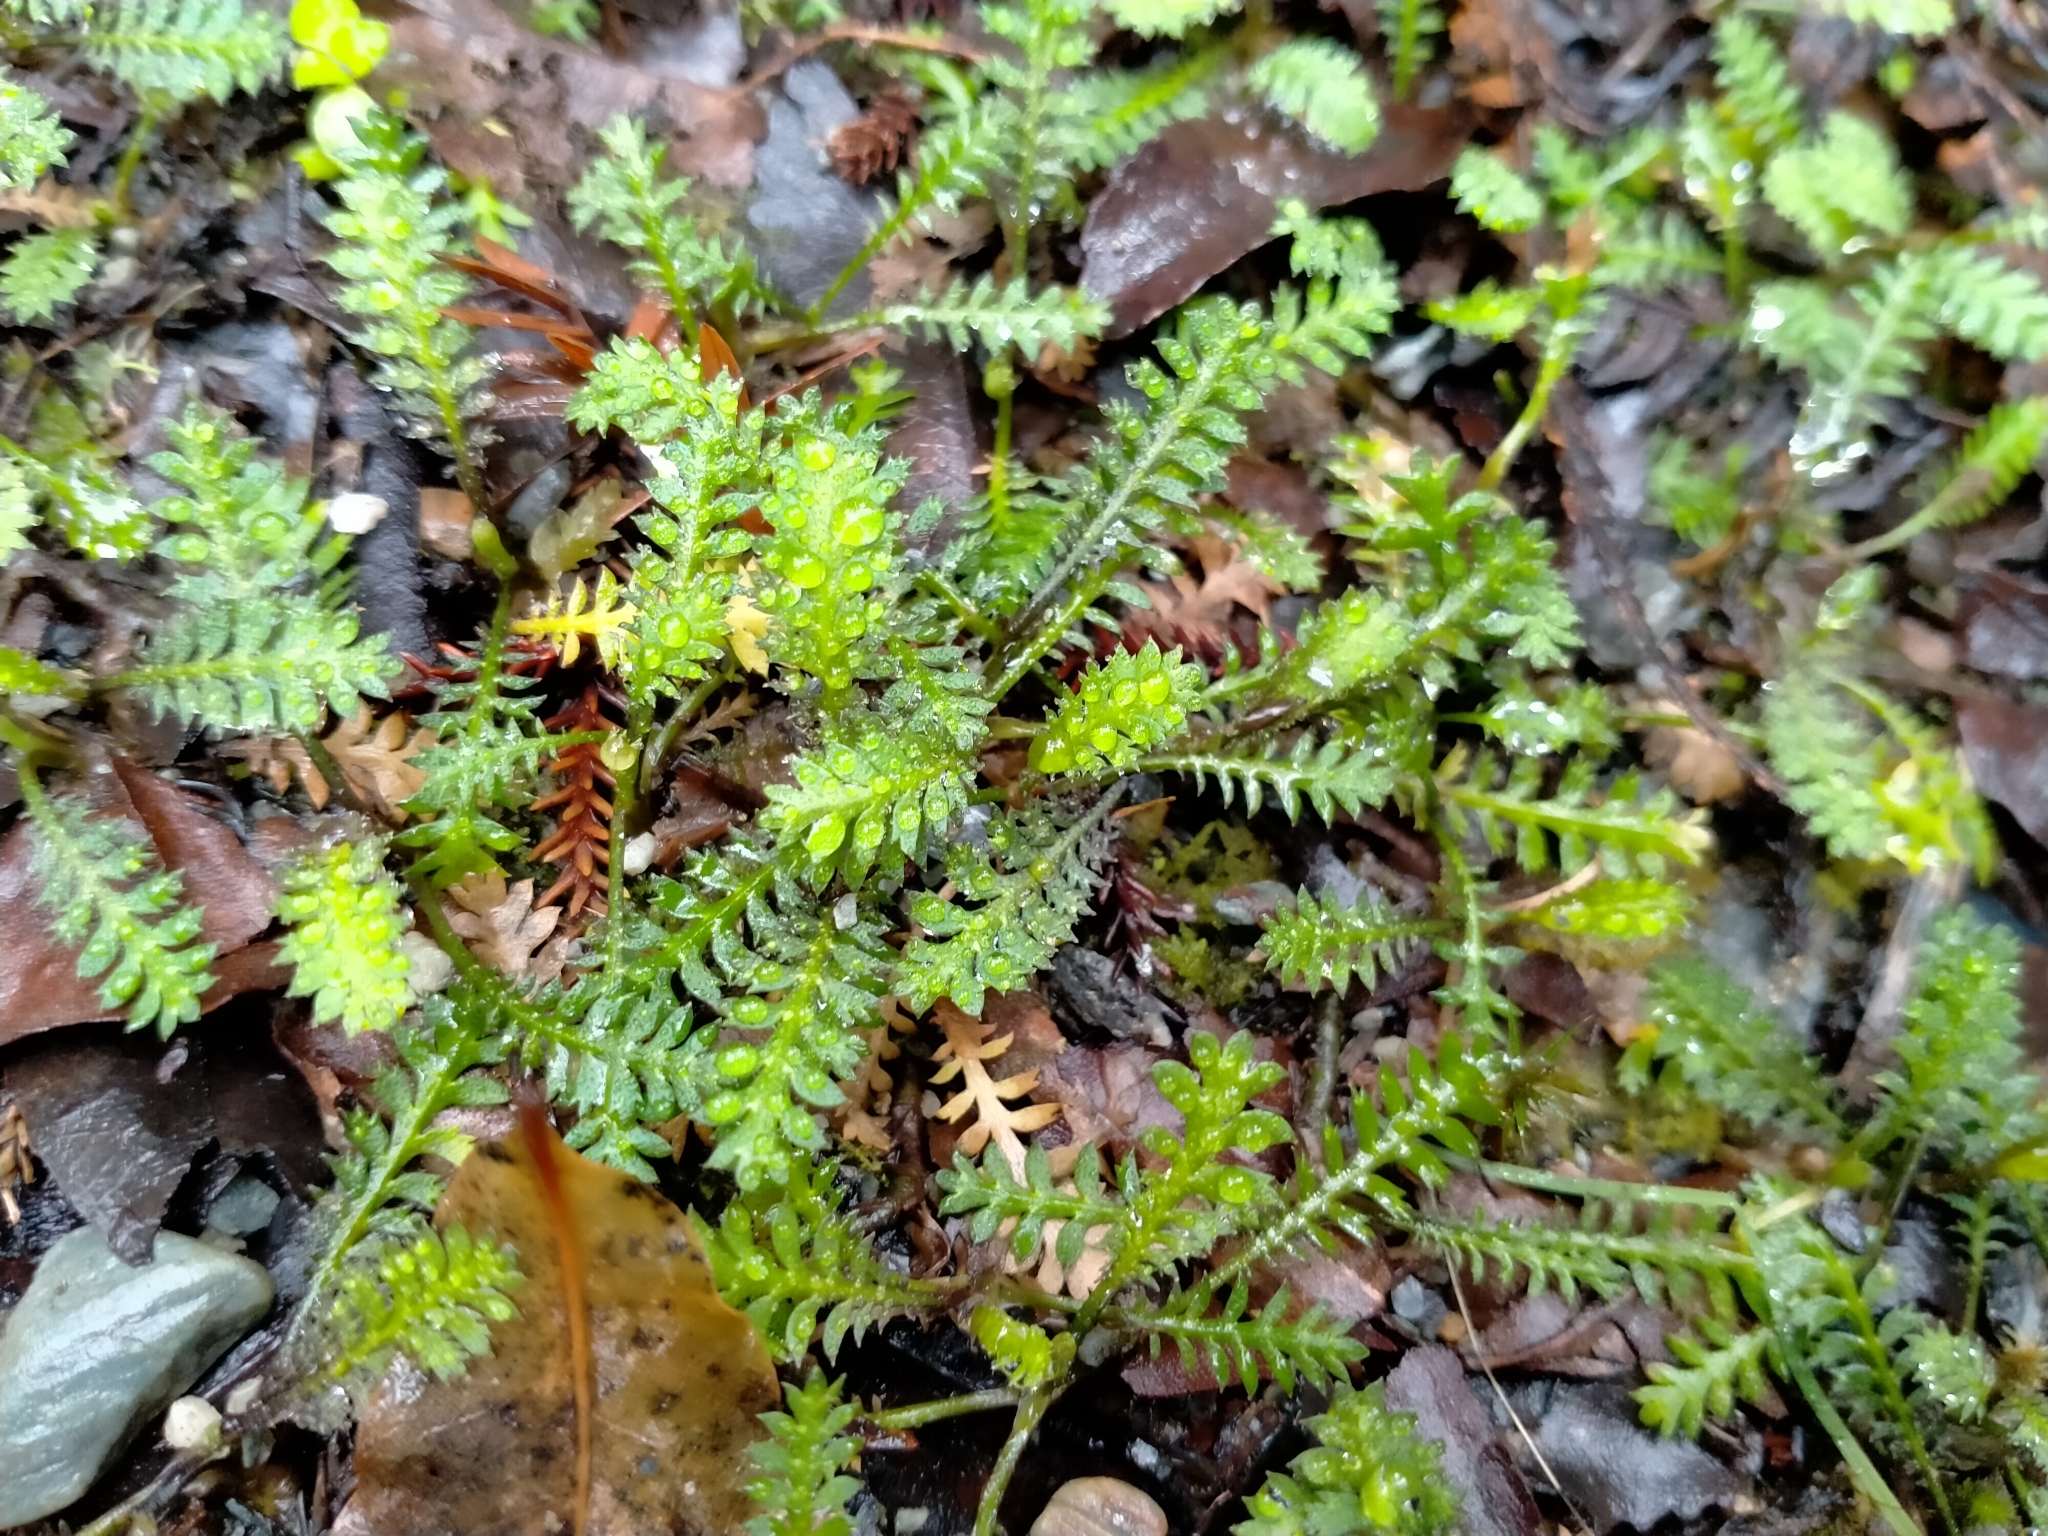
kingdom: Plantae
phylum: Tracheophyta
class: Magnoliopsida
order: Asterales
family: Asteraceae
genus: Leptinella
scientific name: Leptinella squalida
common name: New zealand brass-buttons
